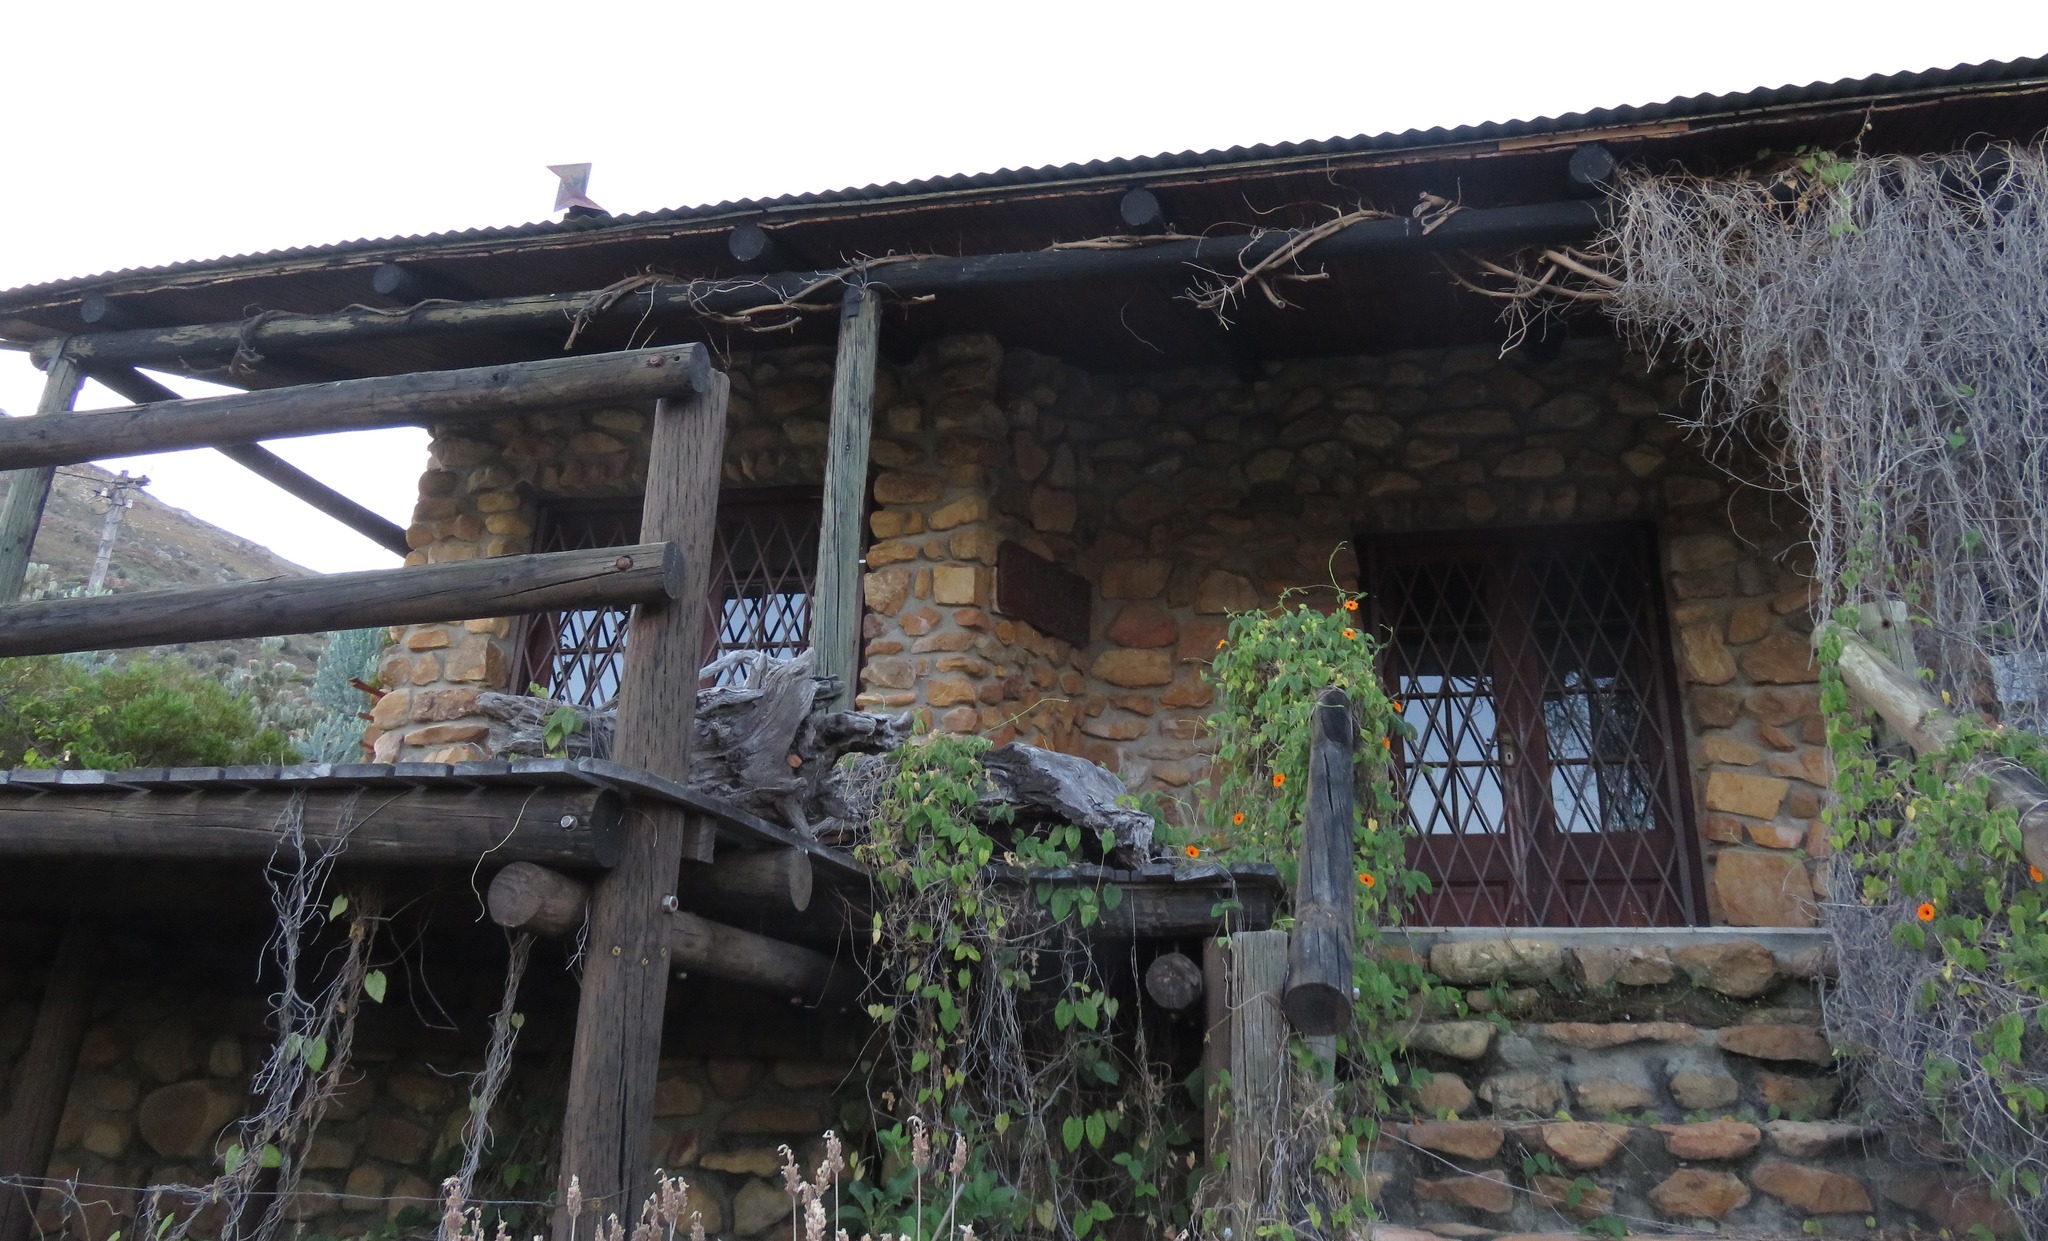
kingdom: Plantae
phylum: Tracheophyta
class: Magnoliopsida
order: Lamiales
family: Acanthaceae
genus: Thunbergia
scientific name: Thunbergia alata
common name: Blackeyed susan vine
